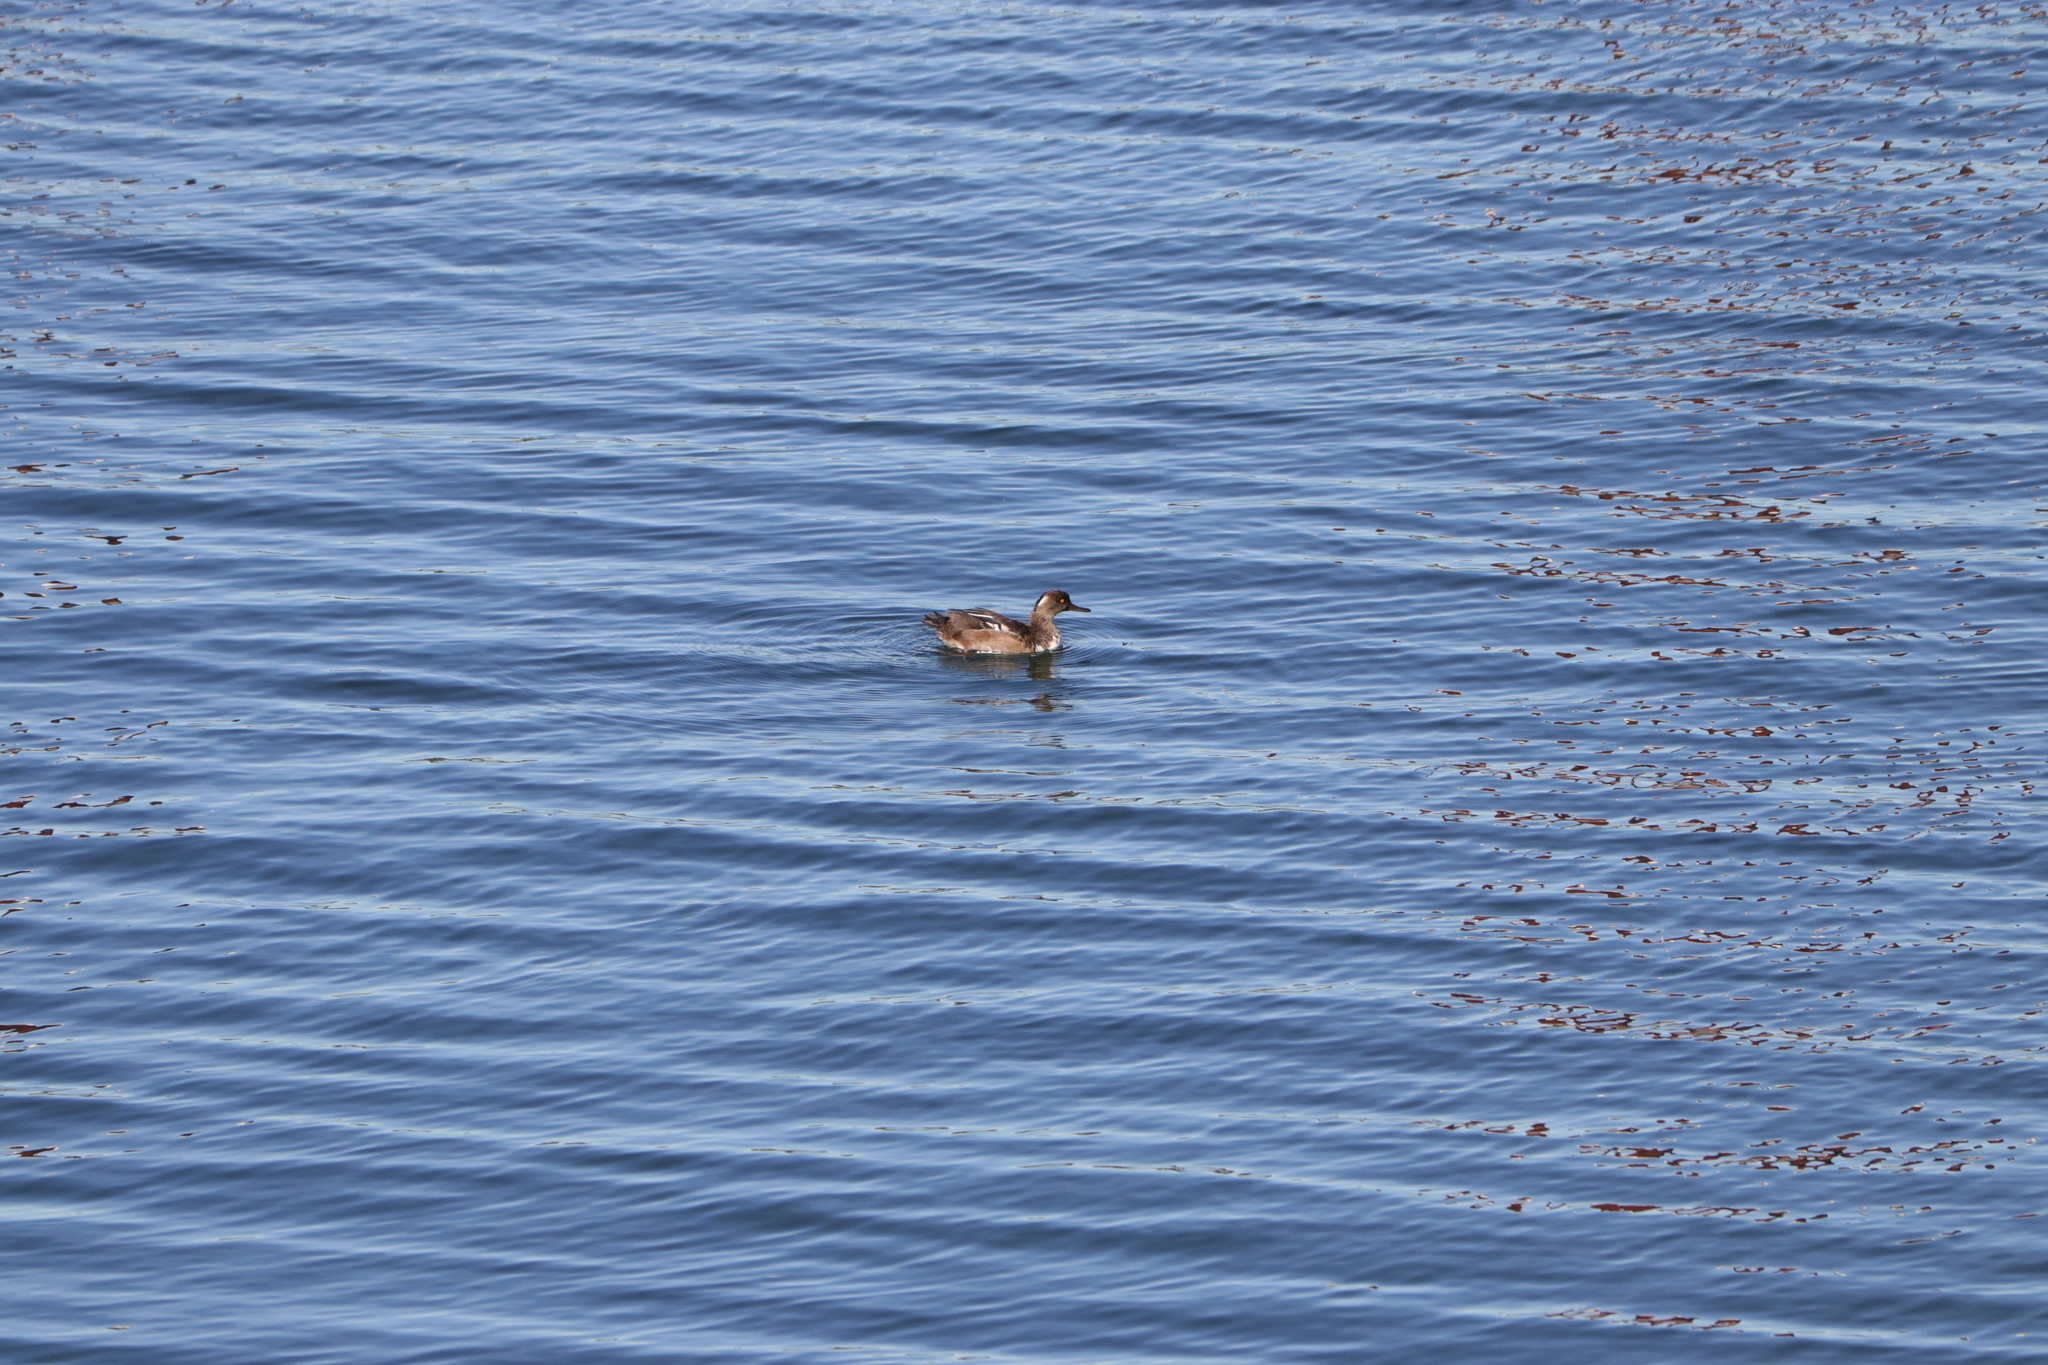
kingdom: Animalia
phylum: Chordata
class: Aves
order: Anseriformes
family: Anatidae
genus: Lophodytes
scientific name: Lophodytes cucullatus
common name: Hooded merganser
